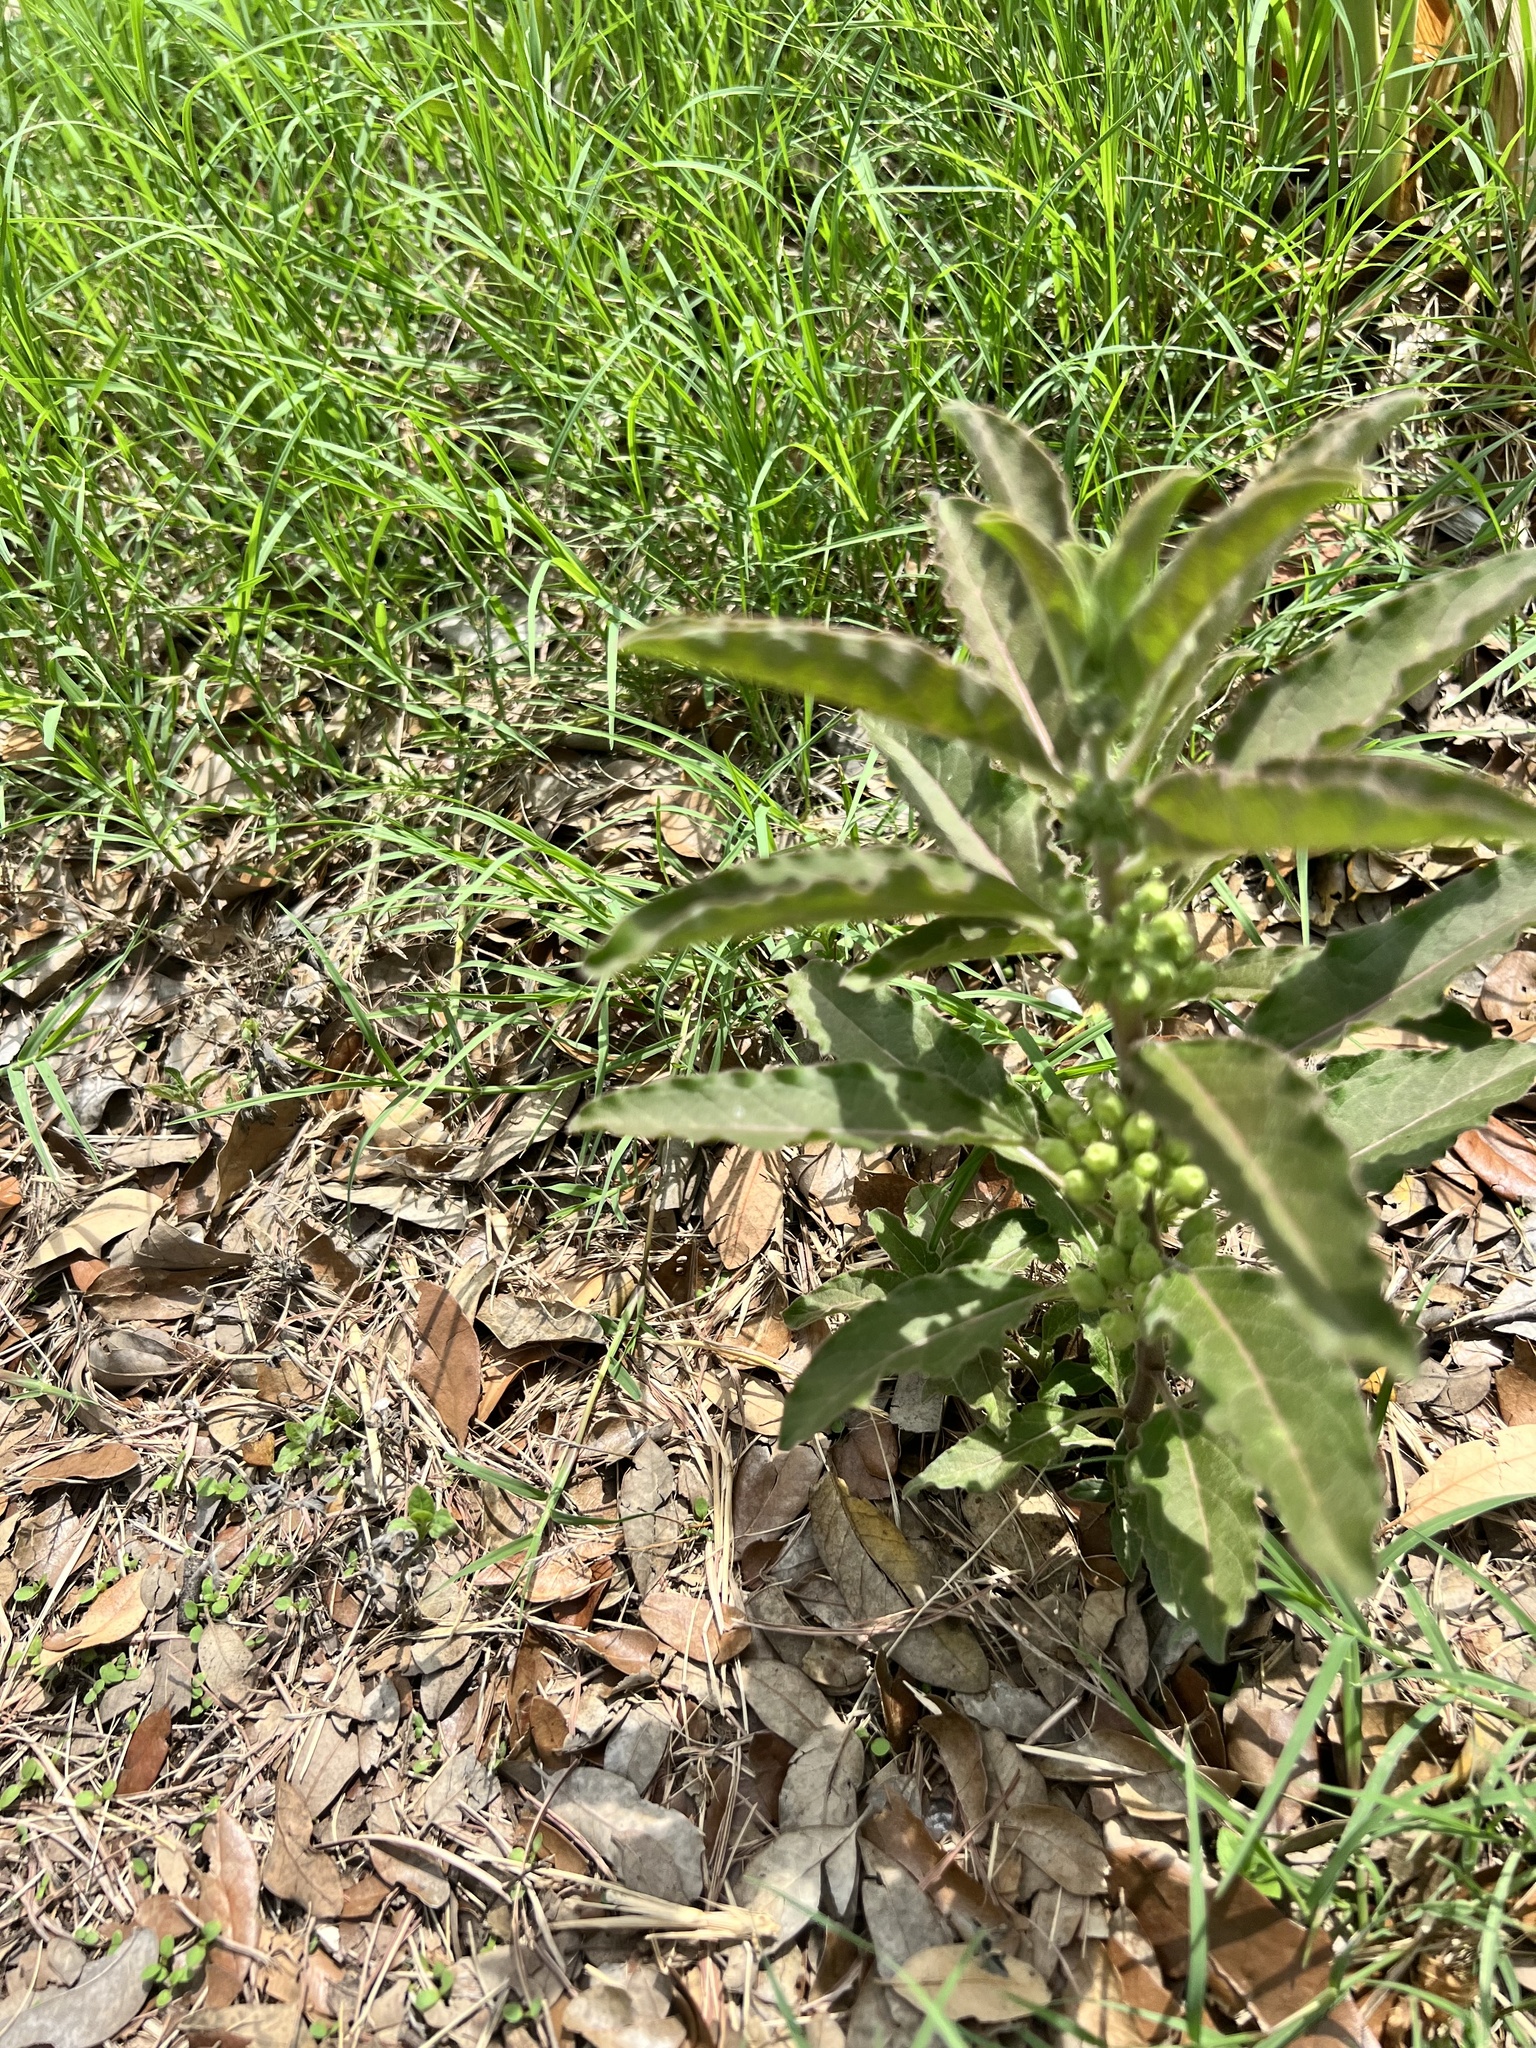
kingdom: Plantae
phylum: Tracheophyta
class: Magnoliopsida
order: Gentianales
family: Apocynaceae
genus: Asclepias
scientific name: Asclepias oenotheroides
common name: Zizotes milkweed
